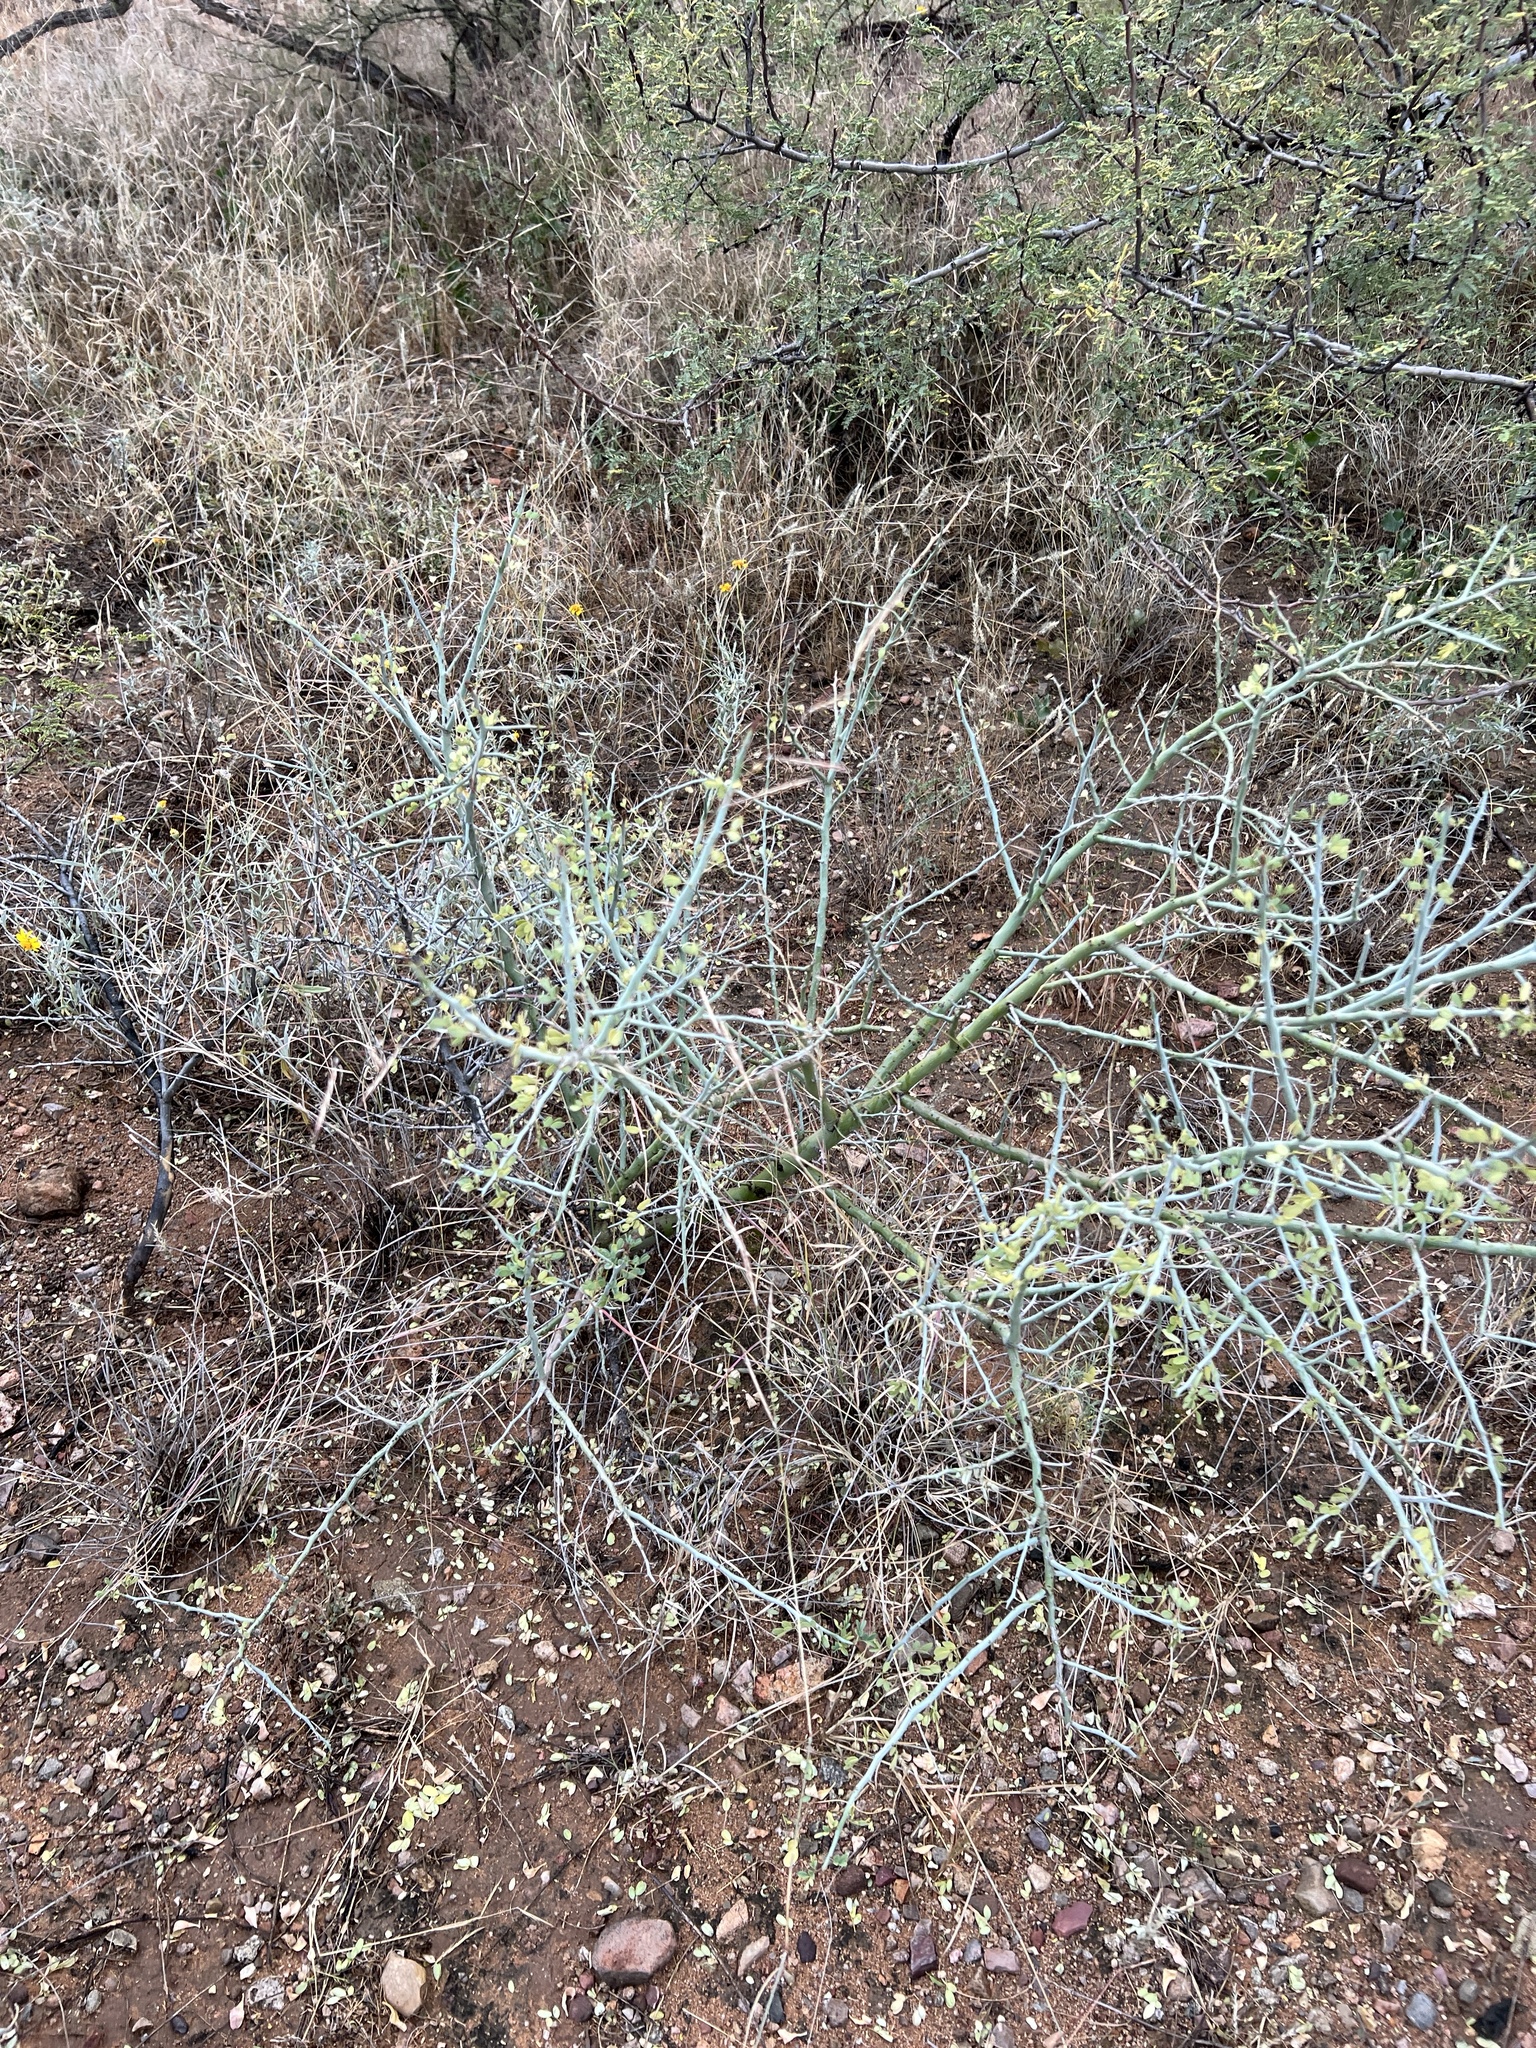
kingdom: Plantae
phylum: Tracheophyta
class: Magnoliopsida
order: Fabales
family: Fabaceae
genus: Parkinsonia
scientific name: Parkinsonia florida
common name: Blue paloverde
